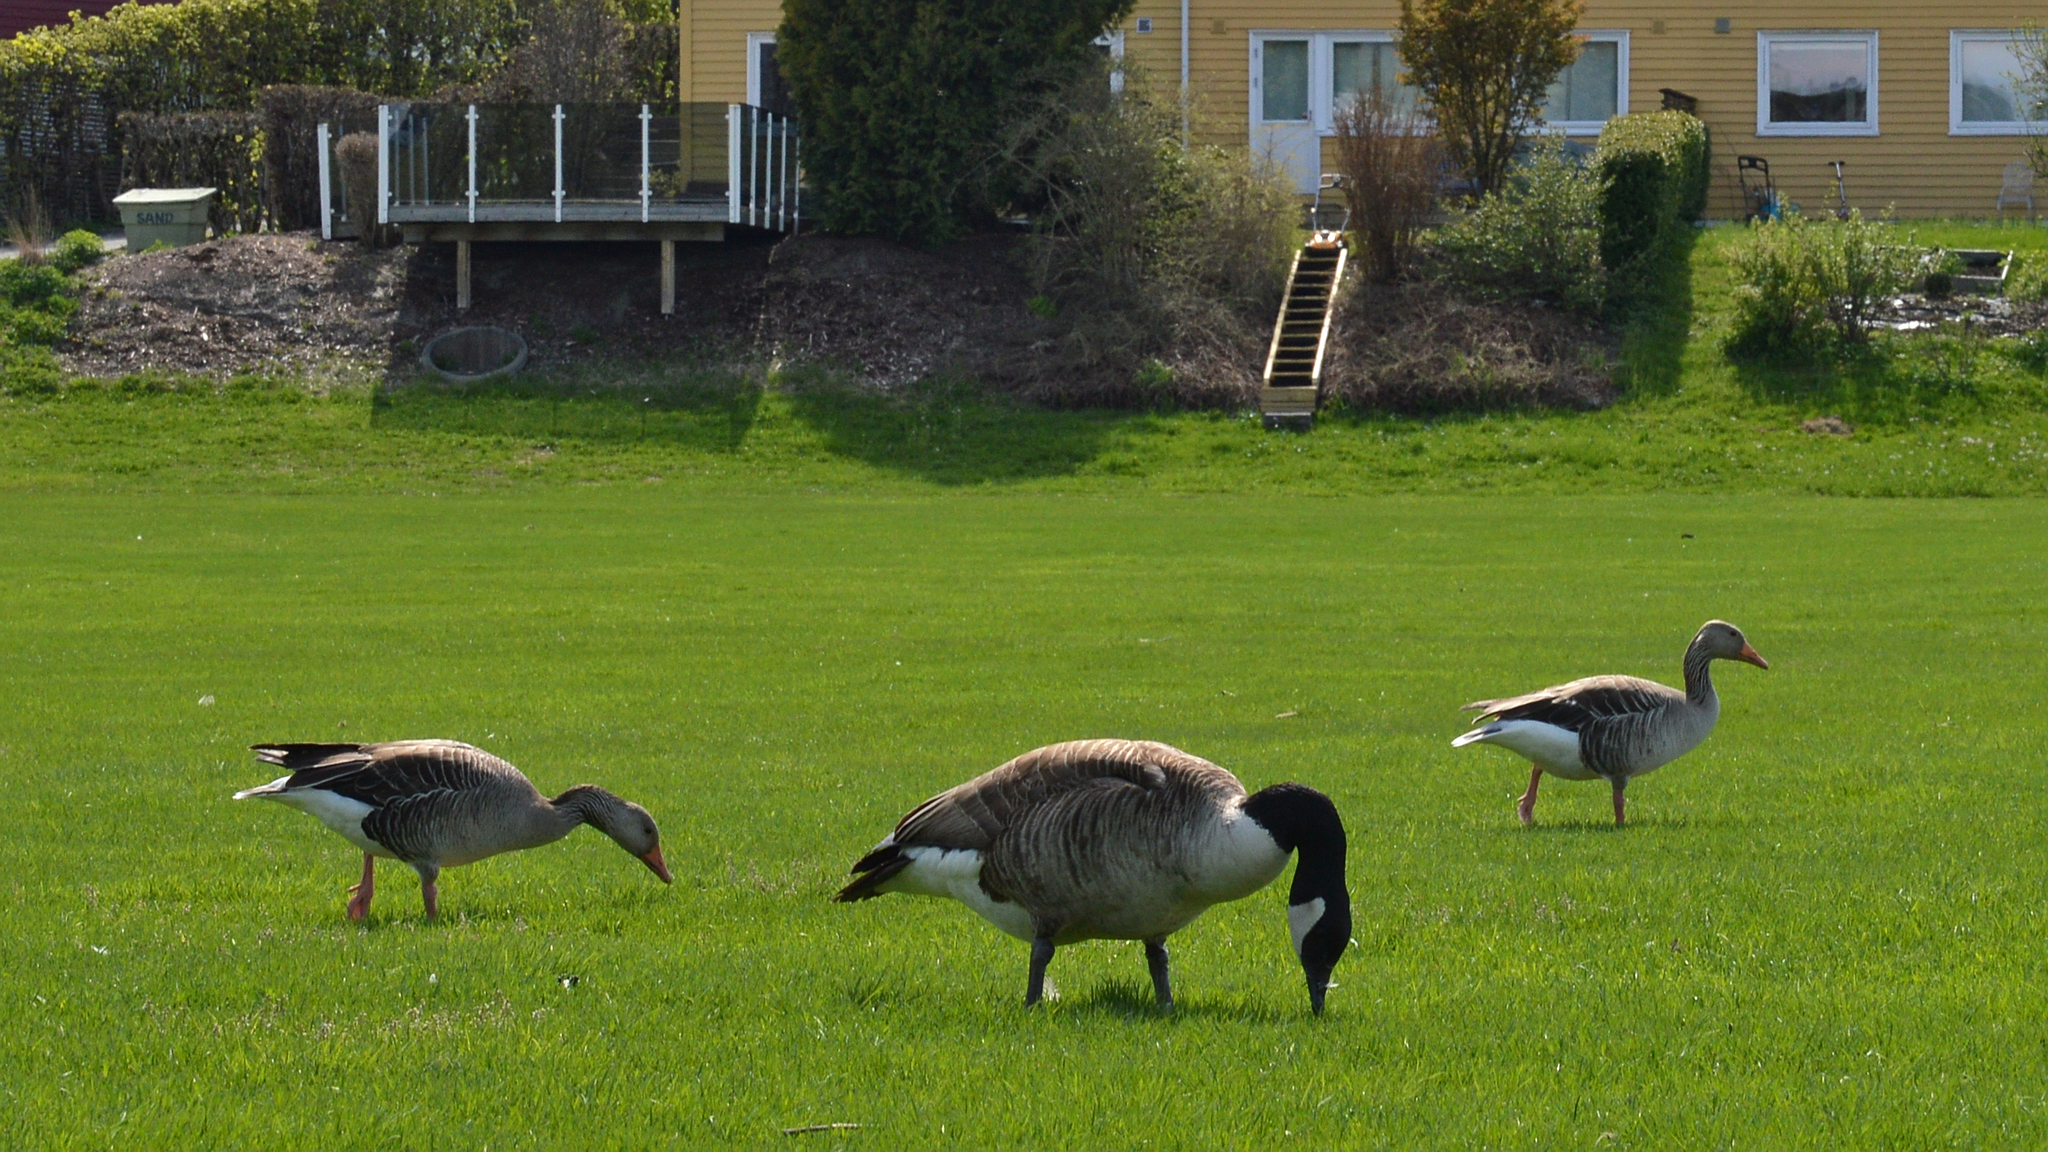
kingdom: Animalia
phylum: Chordata
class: Aves
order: Anseriformes
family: Anatidae
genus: Branta
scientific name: Branta canadensis
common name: Canada goose
